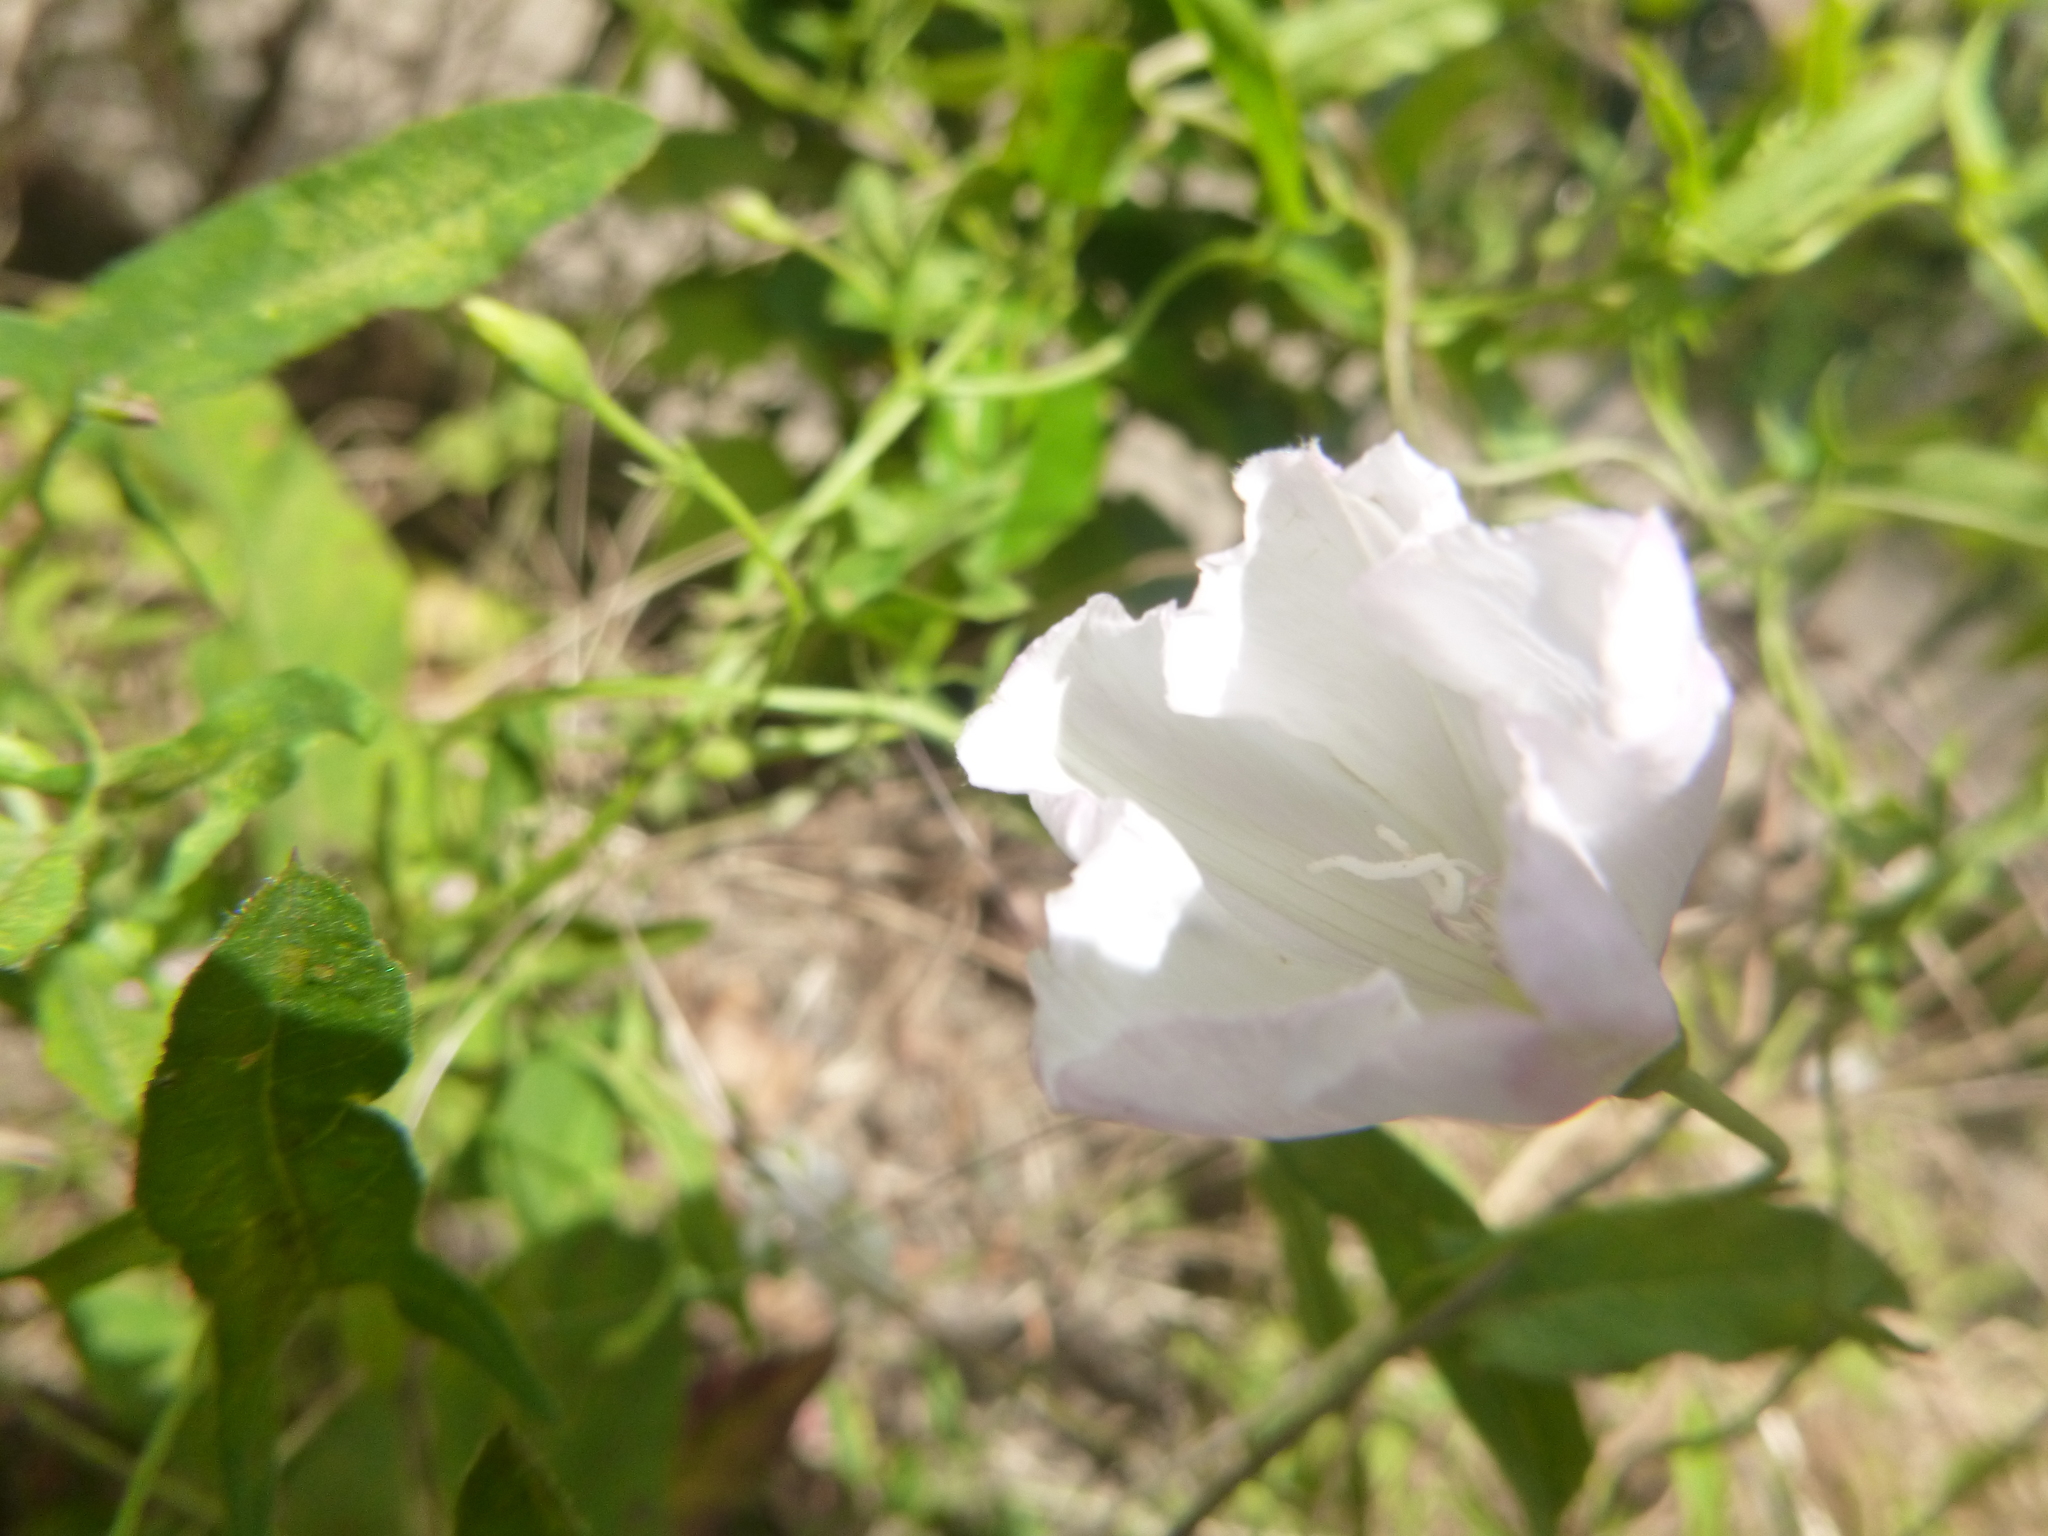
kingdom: Plantae
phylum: Tracheophyta
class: Magnoliopsida
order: Solanales
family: Convolvulaceae
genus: Convolvulus
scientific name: Convolvulus arvensis
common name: Field bindweed
